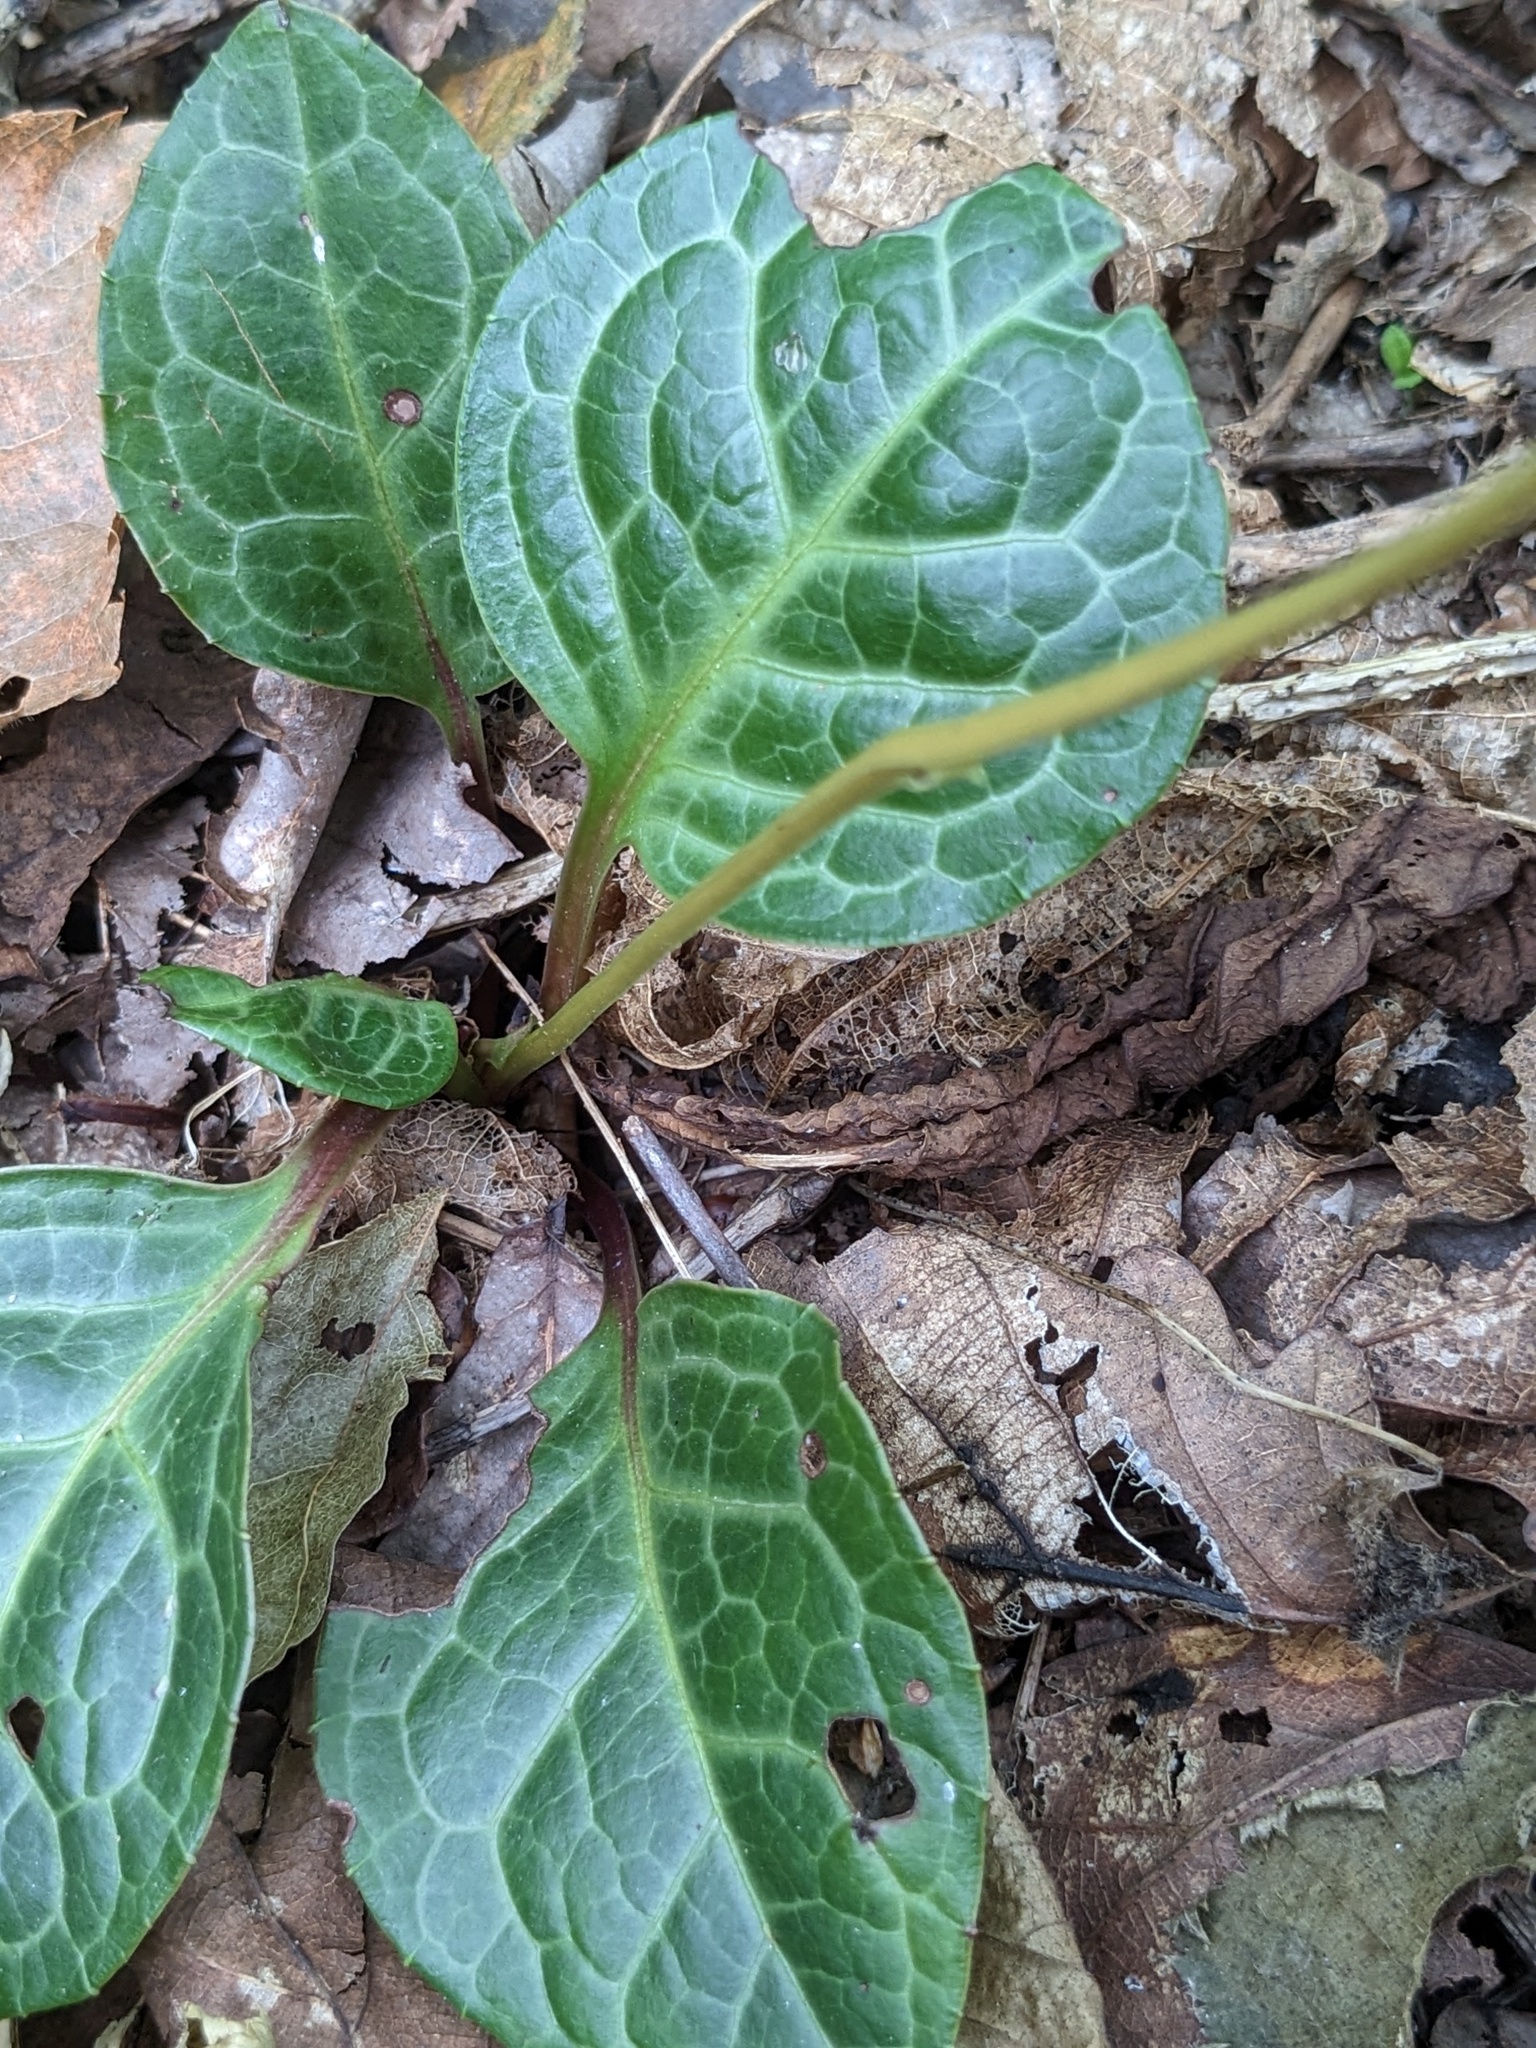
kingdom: Plantae
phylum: Tracheophyta
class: Magnoliopsida
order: Ericales
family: Ericaceae
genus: Pyrola
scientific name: Pyrola japonica
